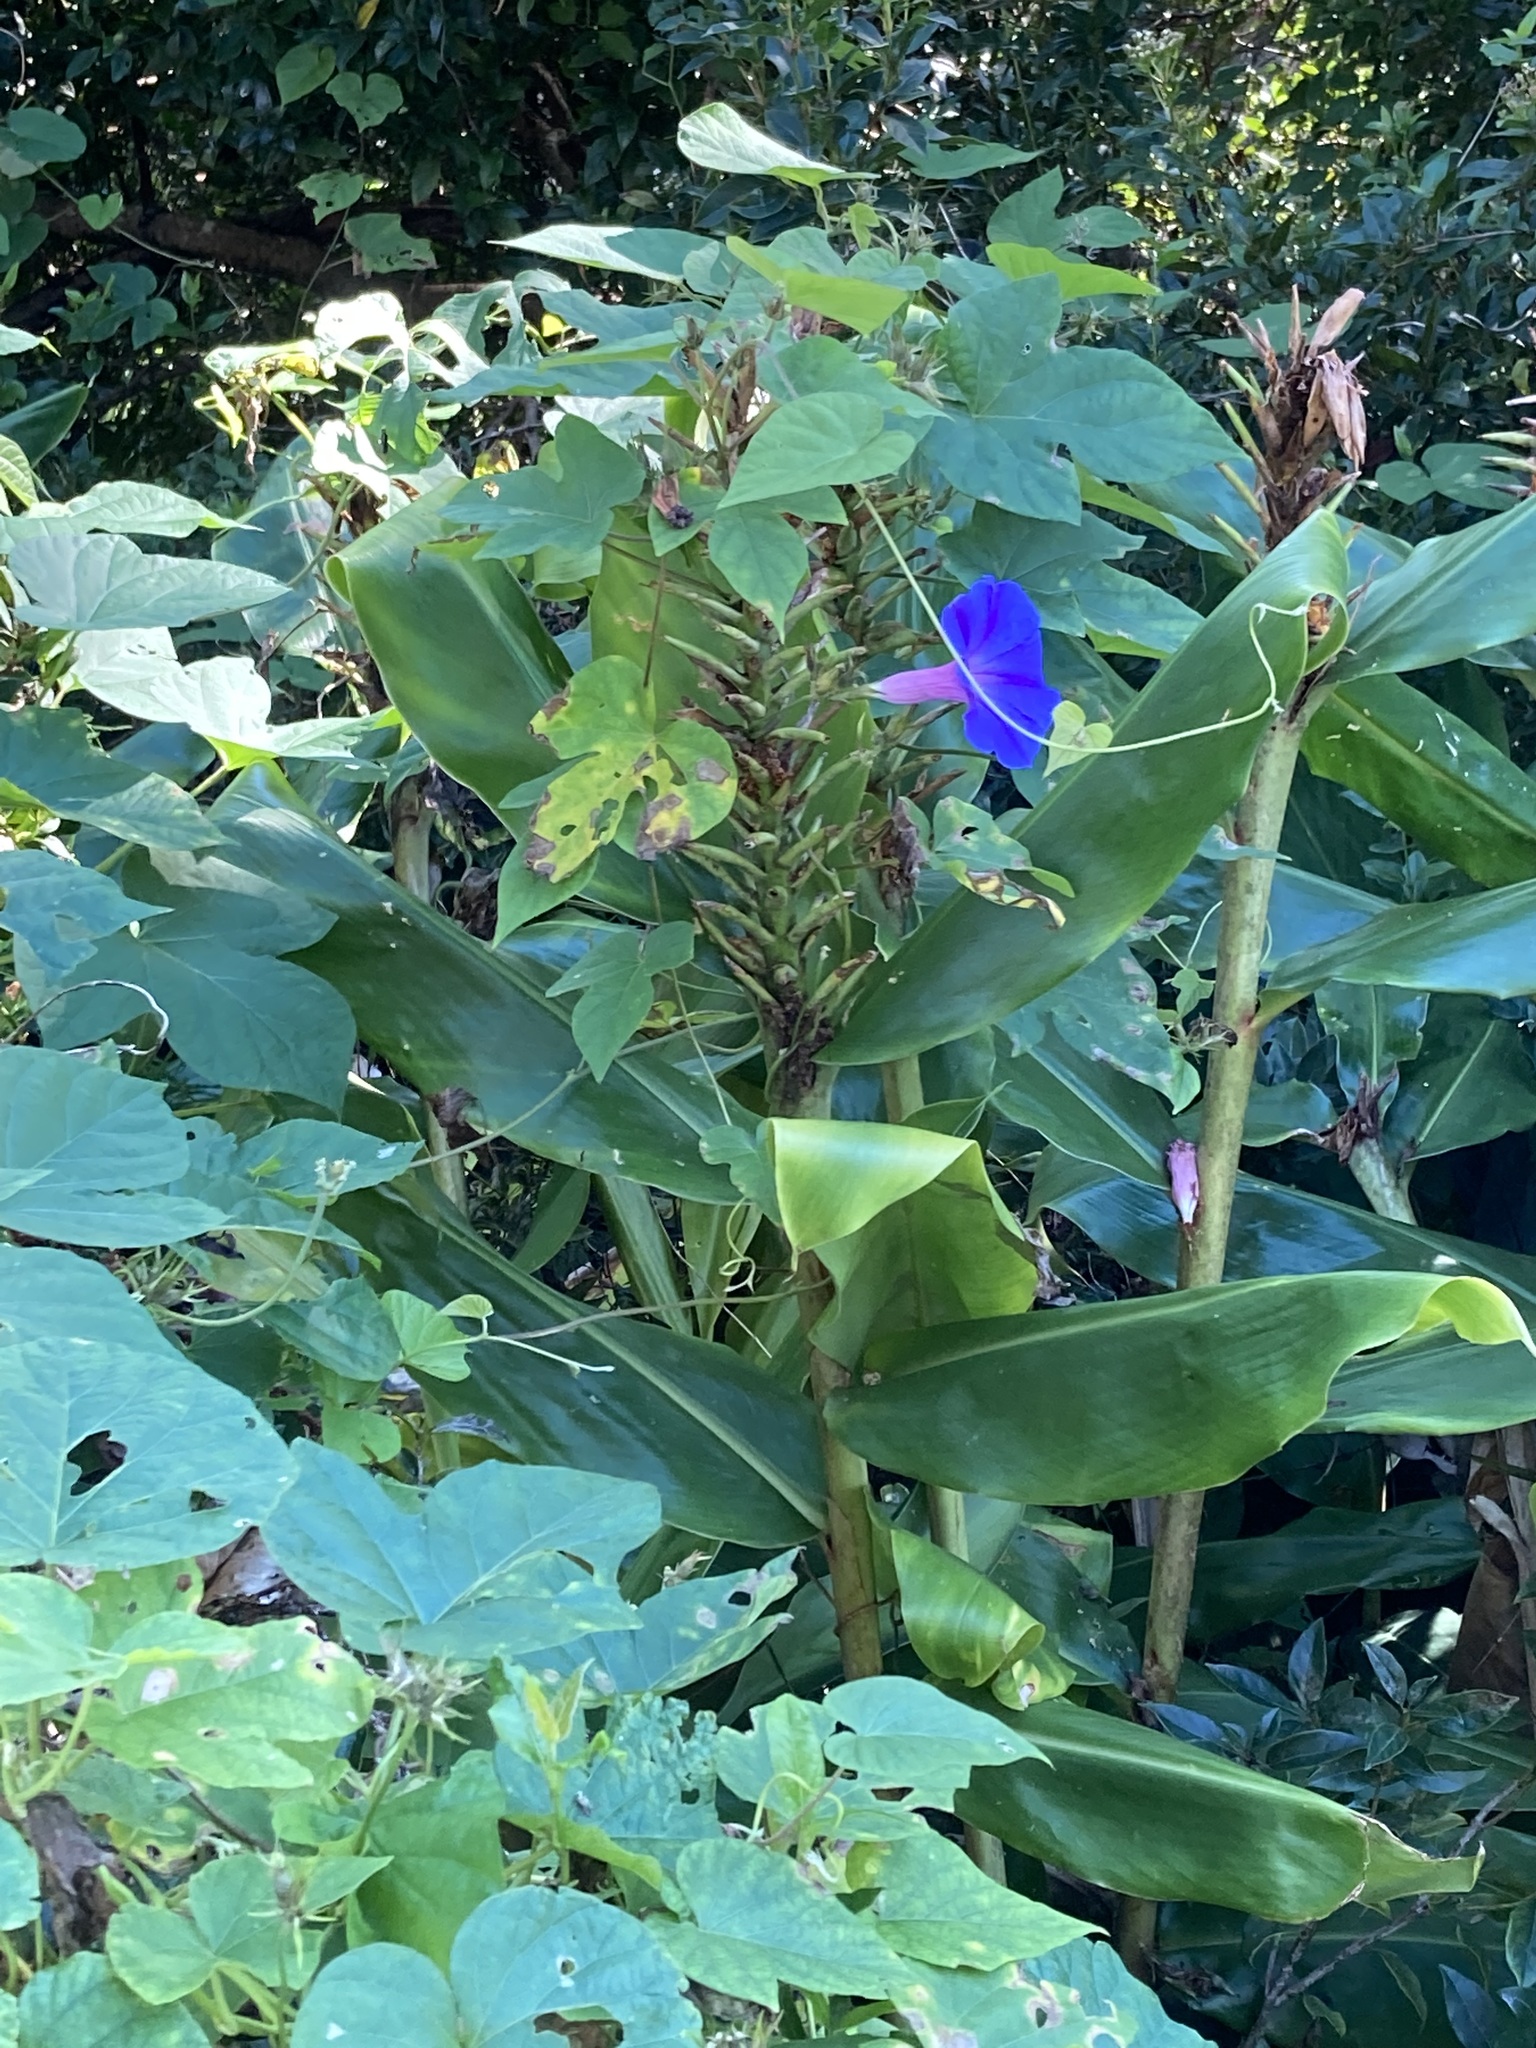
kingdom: Plantae
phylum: Tracheophyta
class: Magnoliopsida
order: Solanales
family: Convolvulaceae
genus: Ipomoea
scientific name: Ipomoea indica
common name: Blue dawnflower
